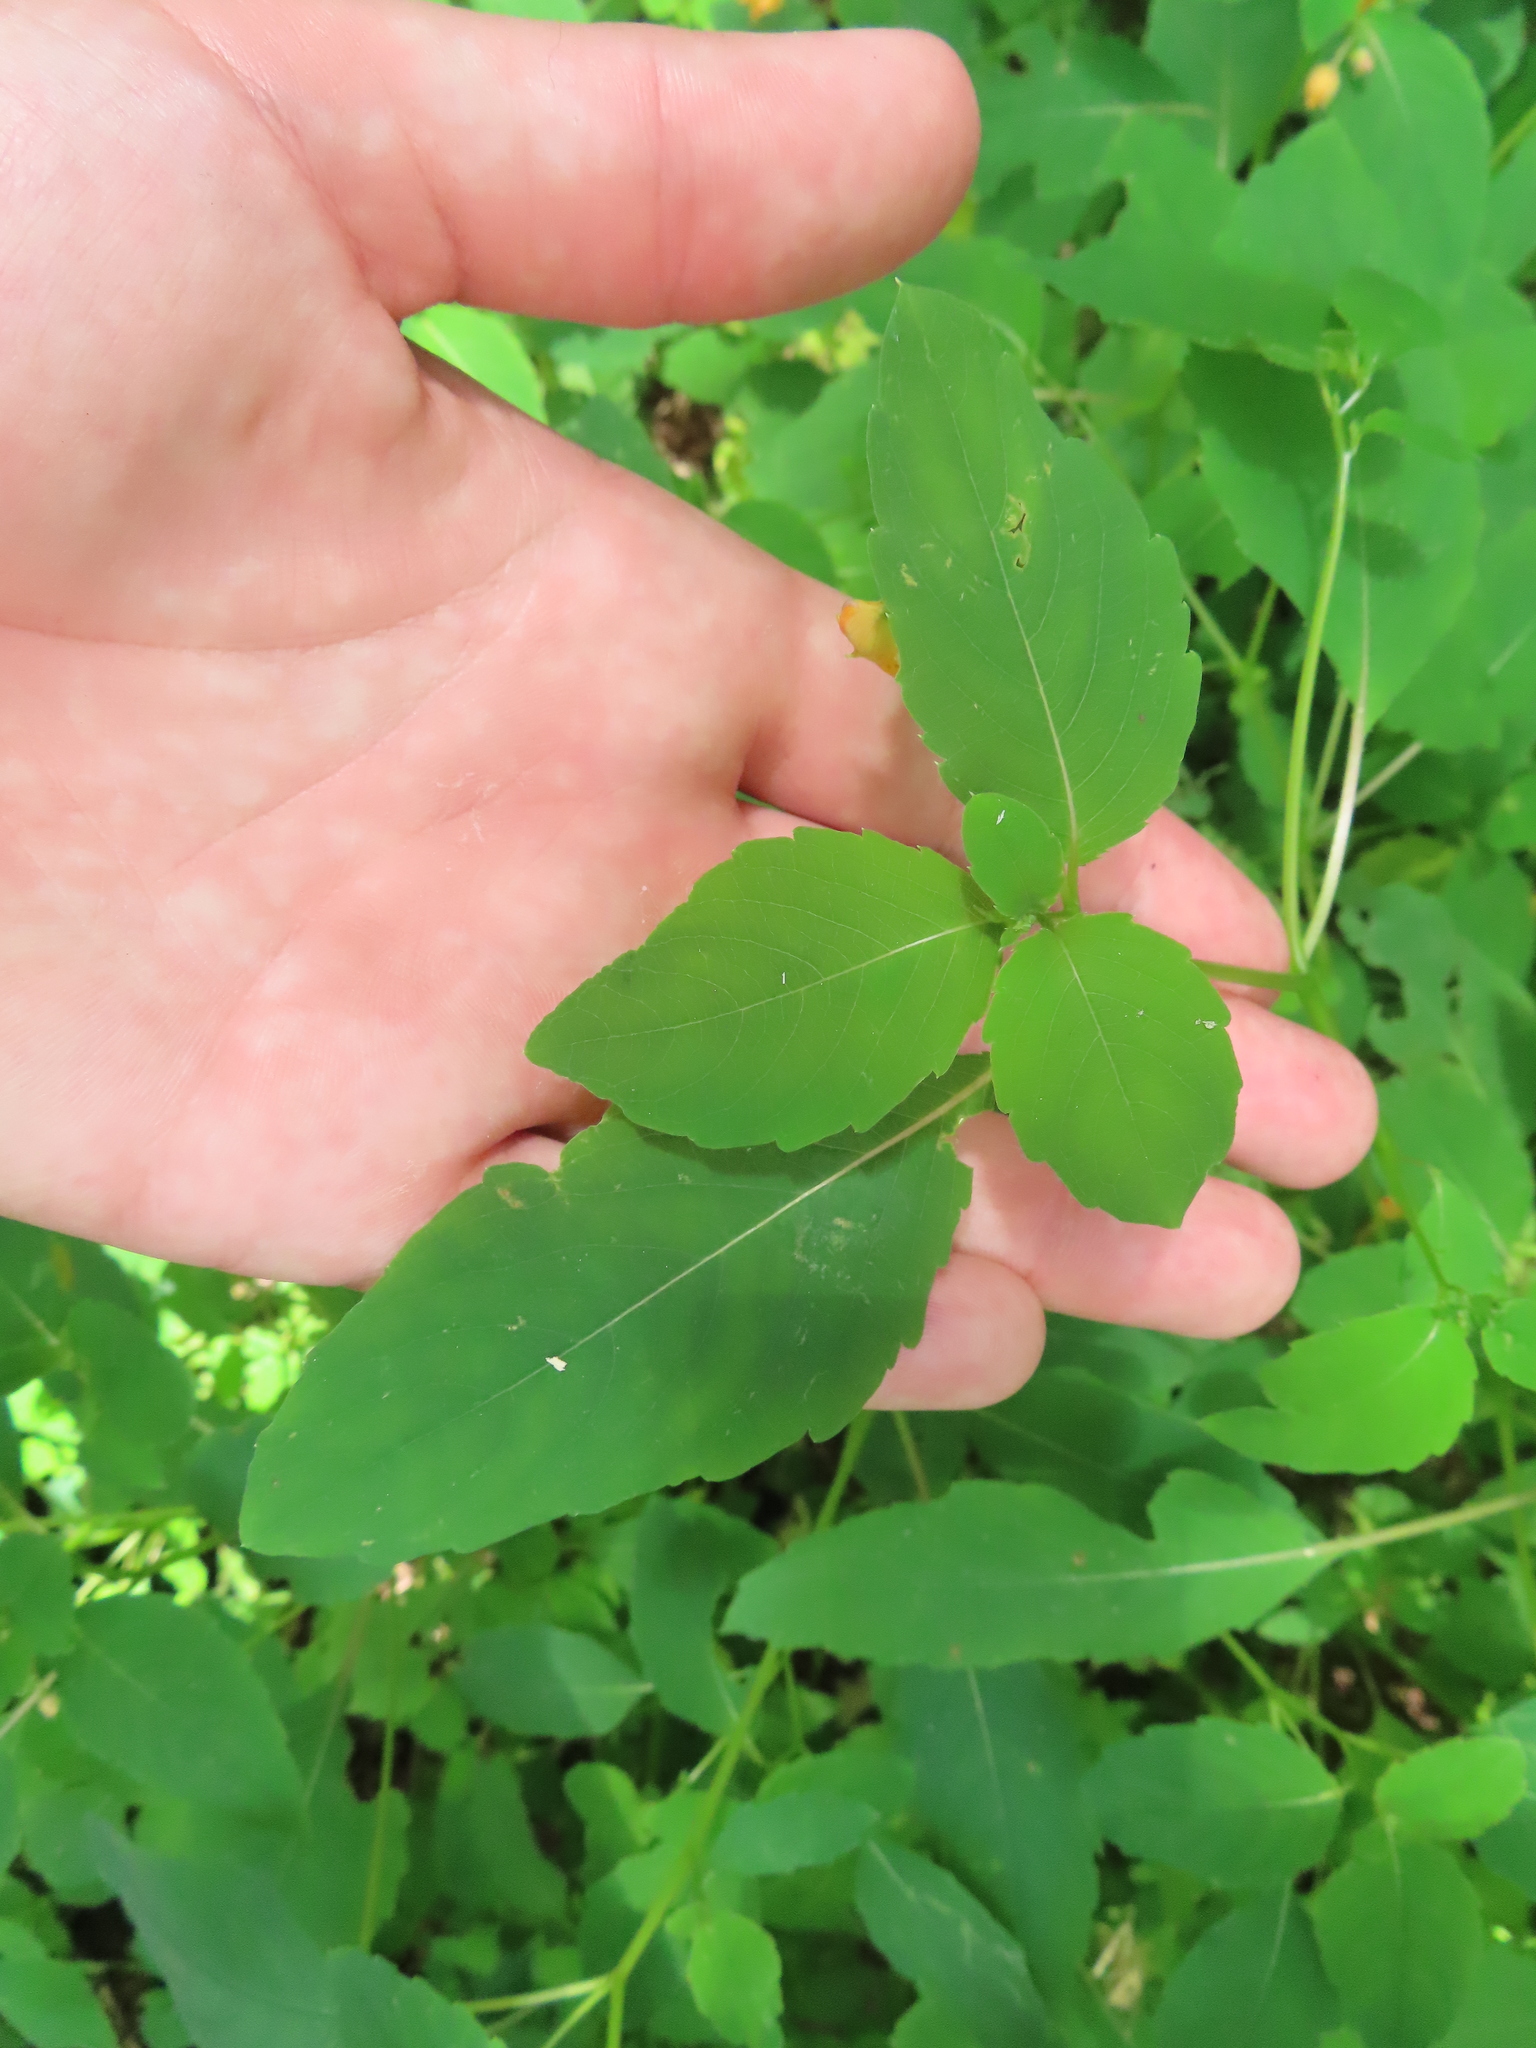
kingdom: Plantae
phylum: Tracheophyta
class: Magnoliopsida
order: Ericales
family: Balsaminaceae
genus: Impatiens
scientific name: Impatiens capensis
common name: Orange balsam
